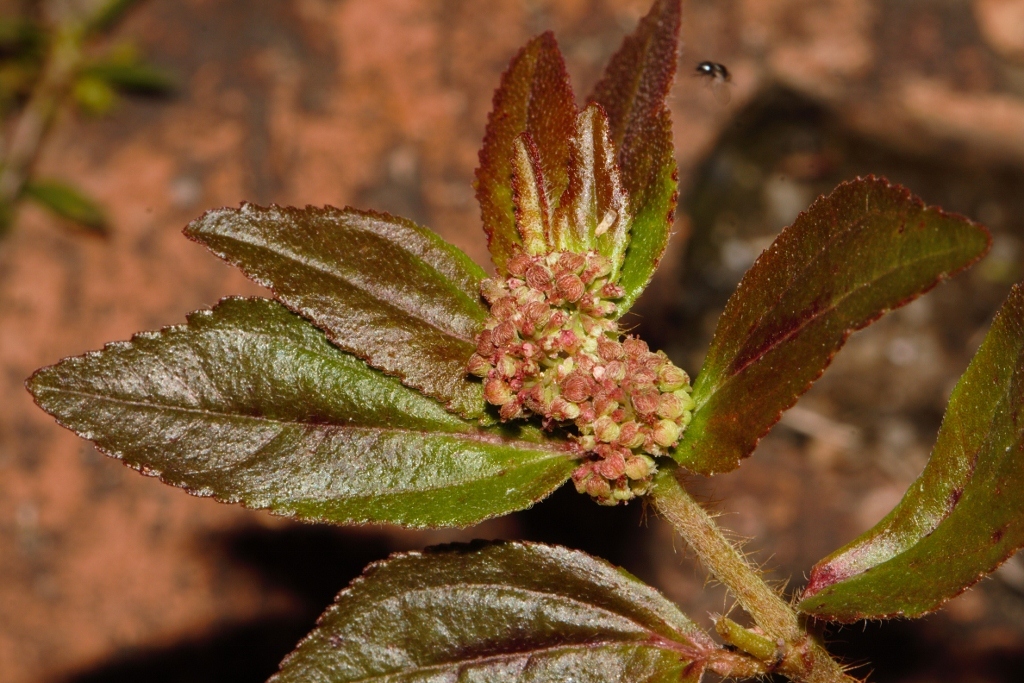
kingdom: Plantae
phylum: Tracheophyta
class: Magnoliopsida
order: Malpighiales
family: Euphorbiaceae
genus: Euphorbia
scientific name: Euphorbia hirta
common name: Pillpod sandmat
